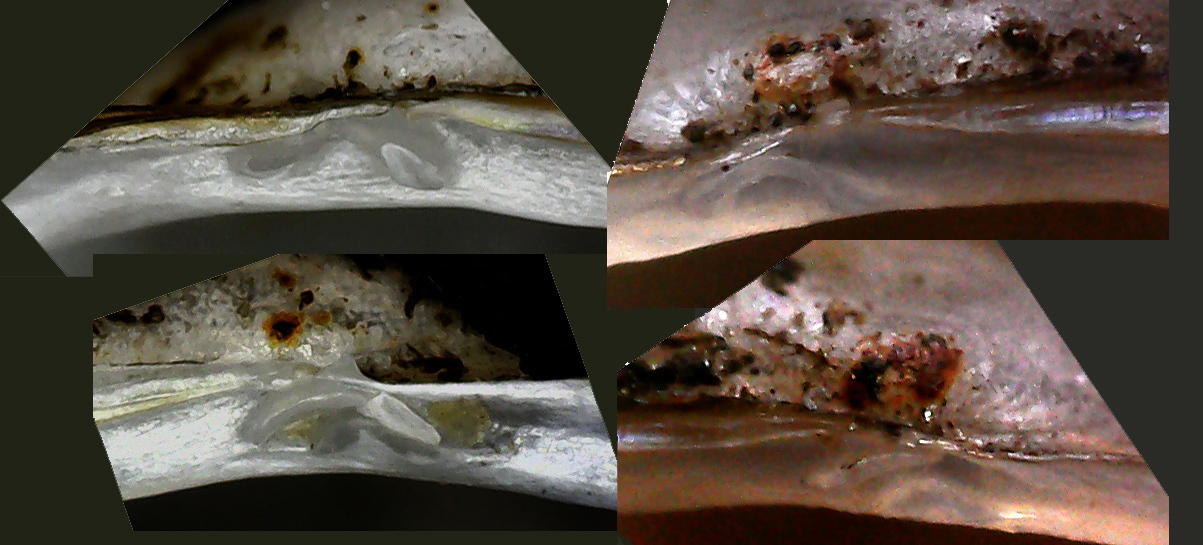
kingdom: Animalia
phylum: Mollusca
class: Bivalvia
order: Sphaeriida
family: Sphaeriidae
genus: Sphaerium
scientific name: Sphaerium corneum
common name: Horny orb mussel
